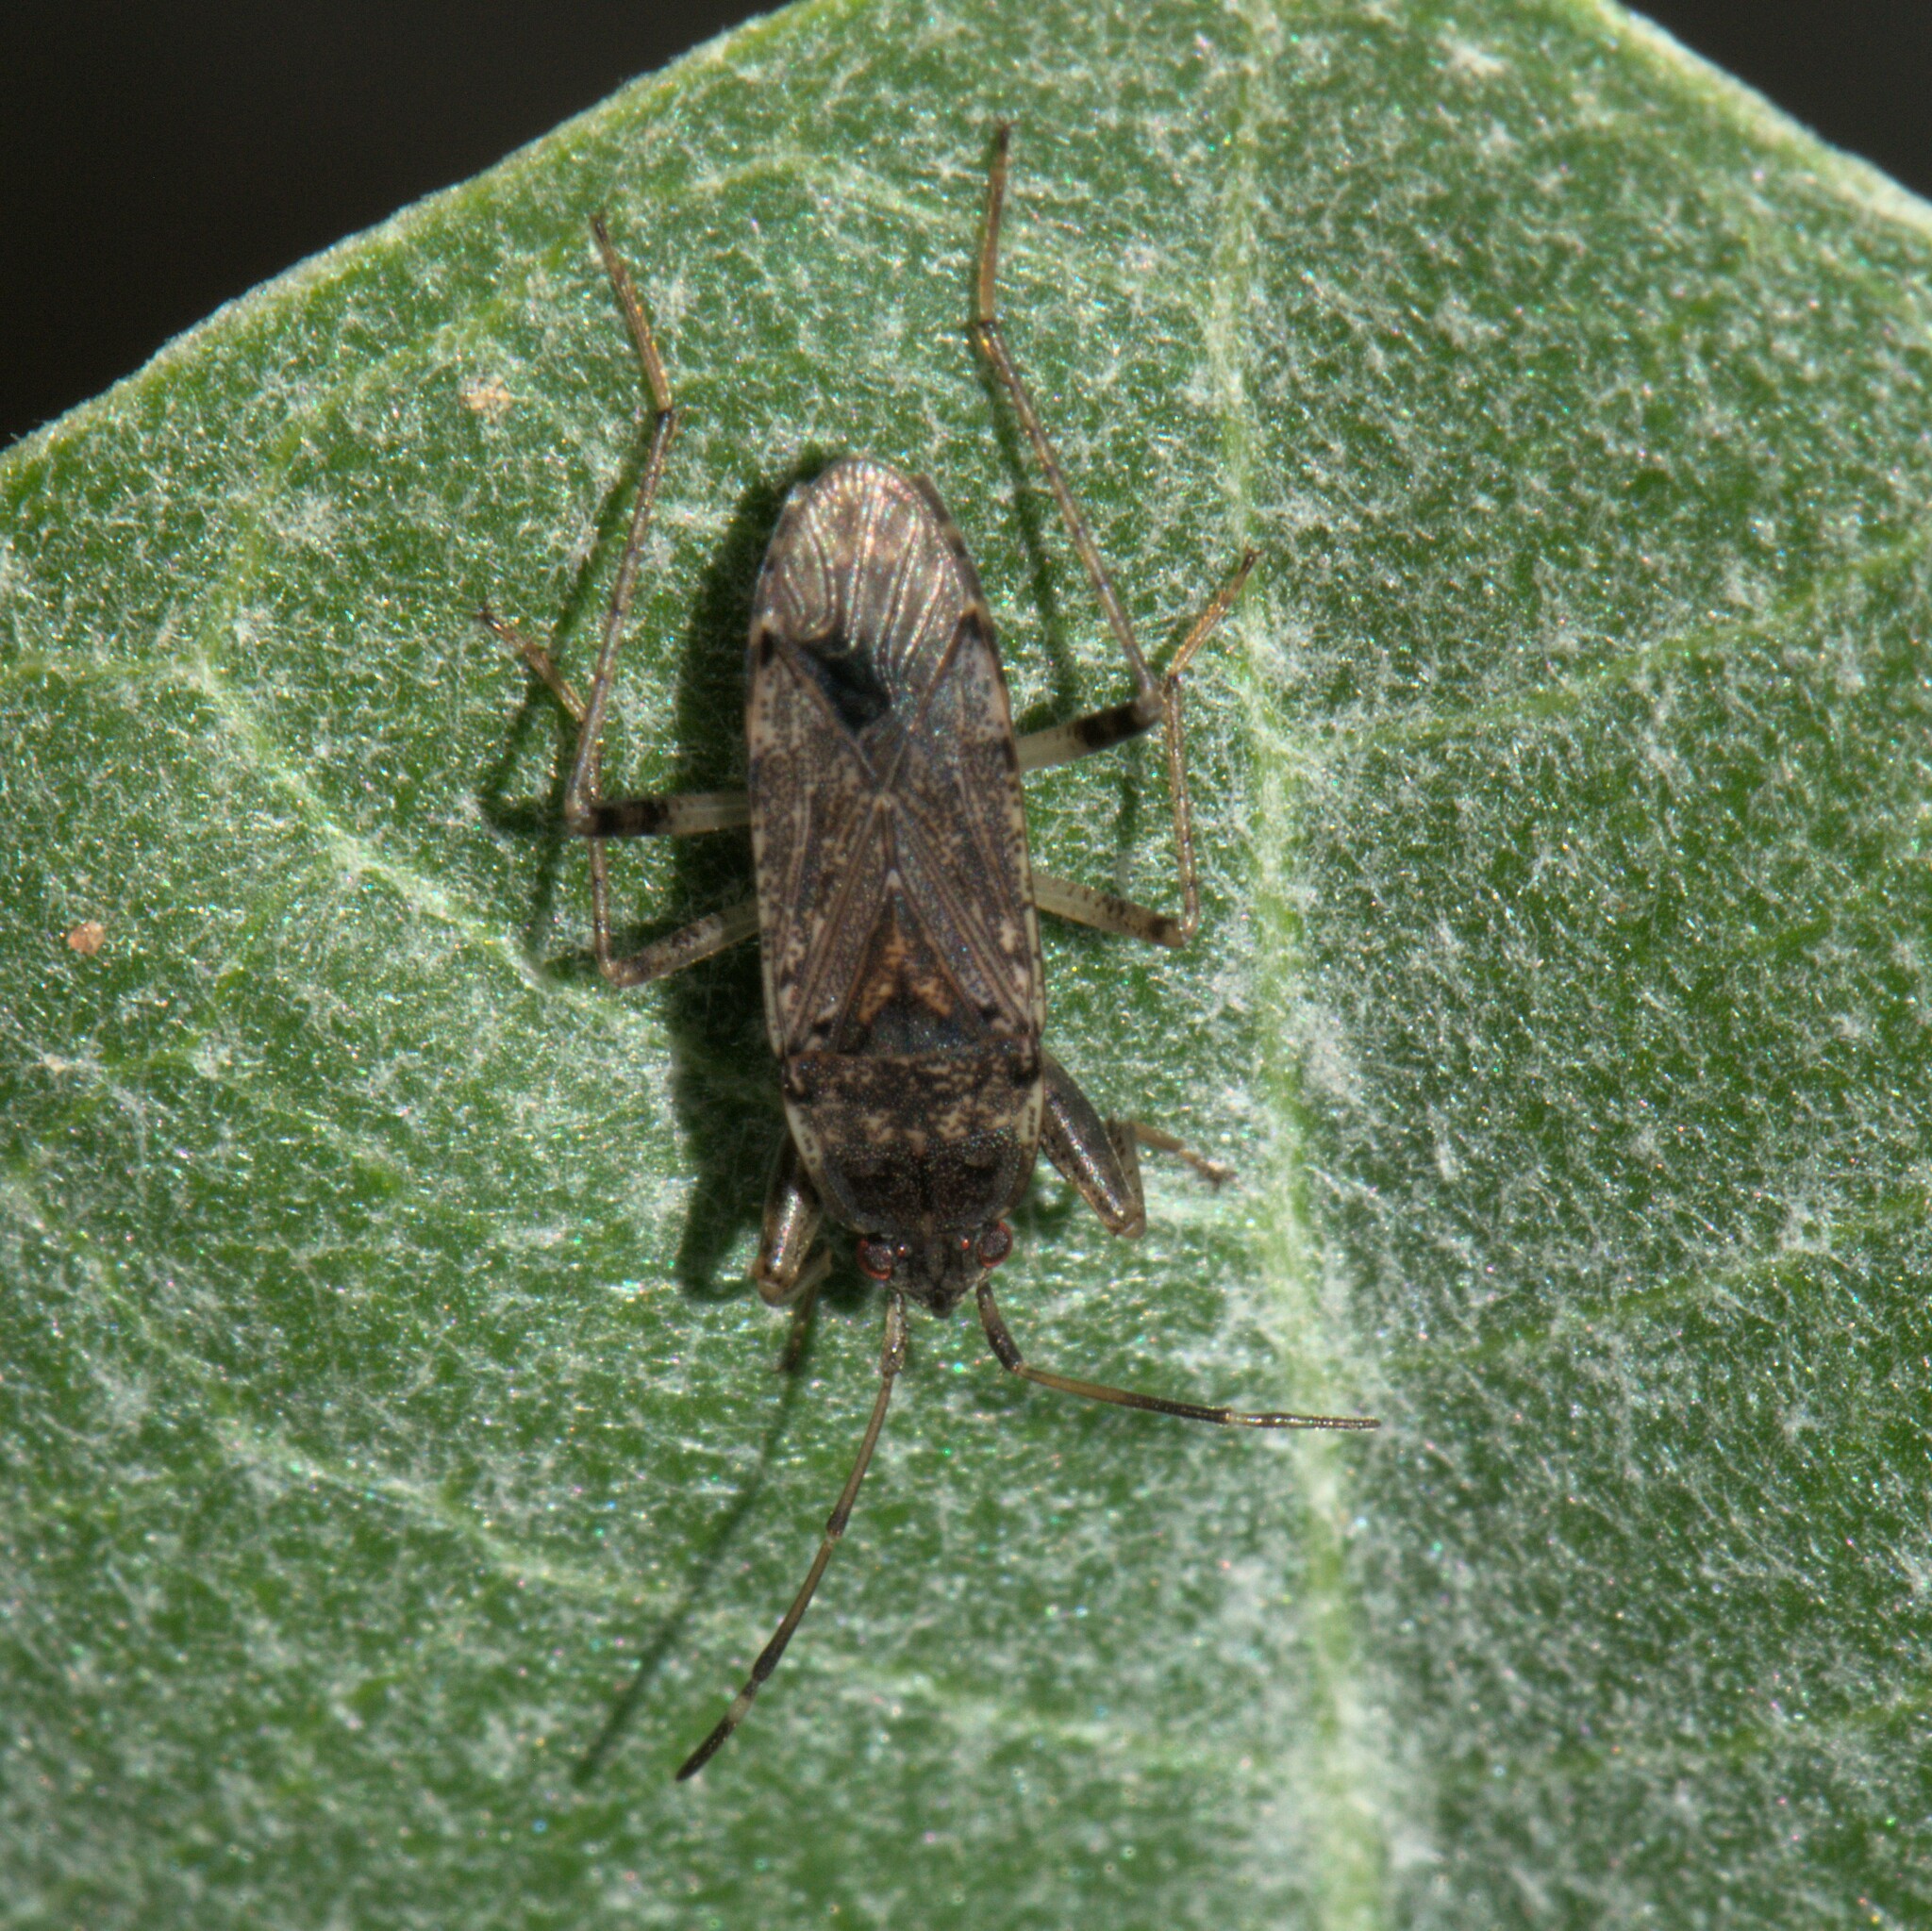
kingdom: Animalia
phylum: Arthropoda
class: Insecta
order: Hemiptera
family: Rhyparochromidae
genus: Elasmolomus
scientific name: Elasmolomus pallens
